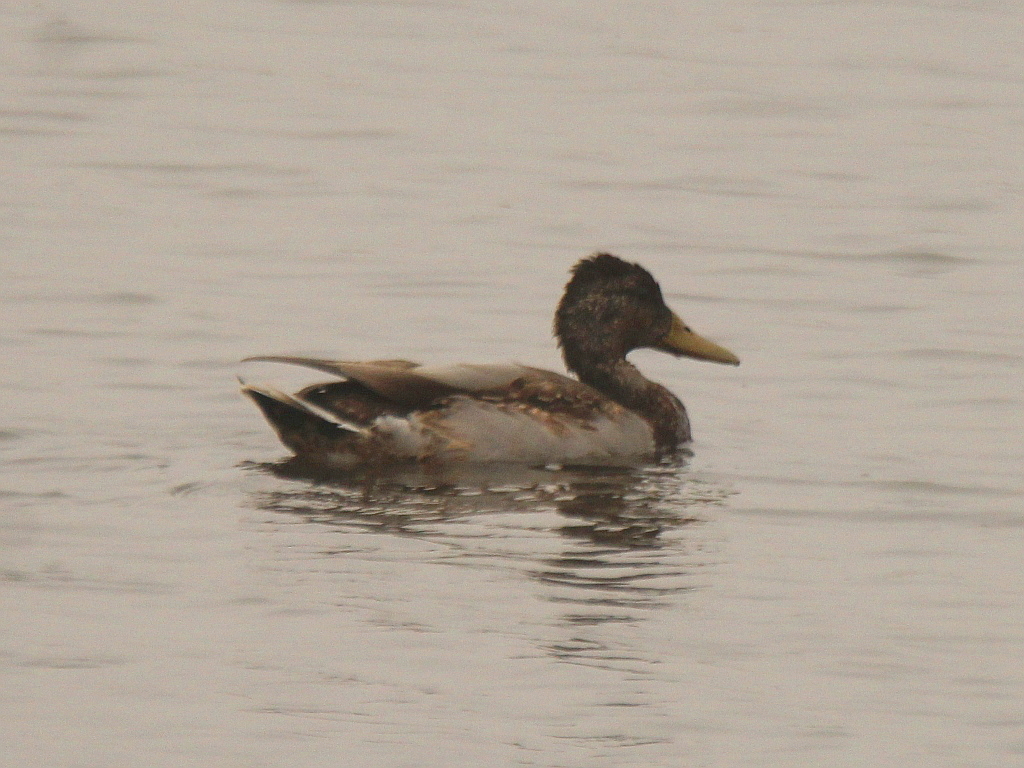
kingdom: Animalia
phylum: Chordata
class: Aves
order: Anseriformes
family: Anatidae
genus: Anas
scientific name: Anas platyrhynchos
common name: Mallard
